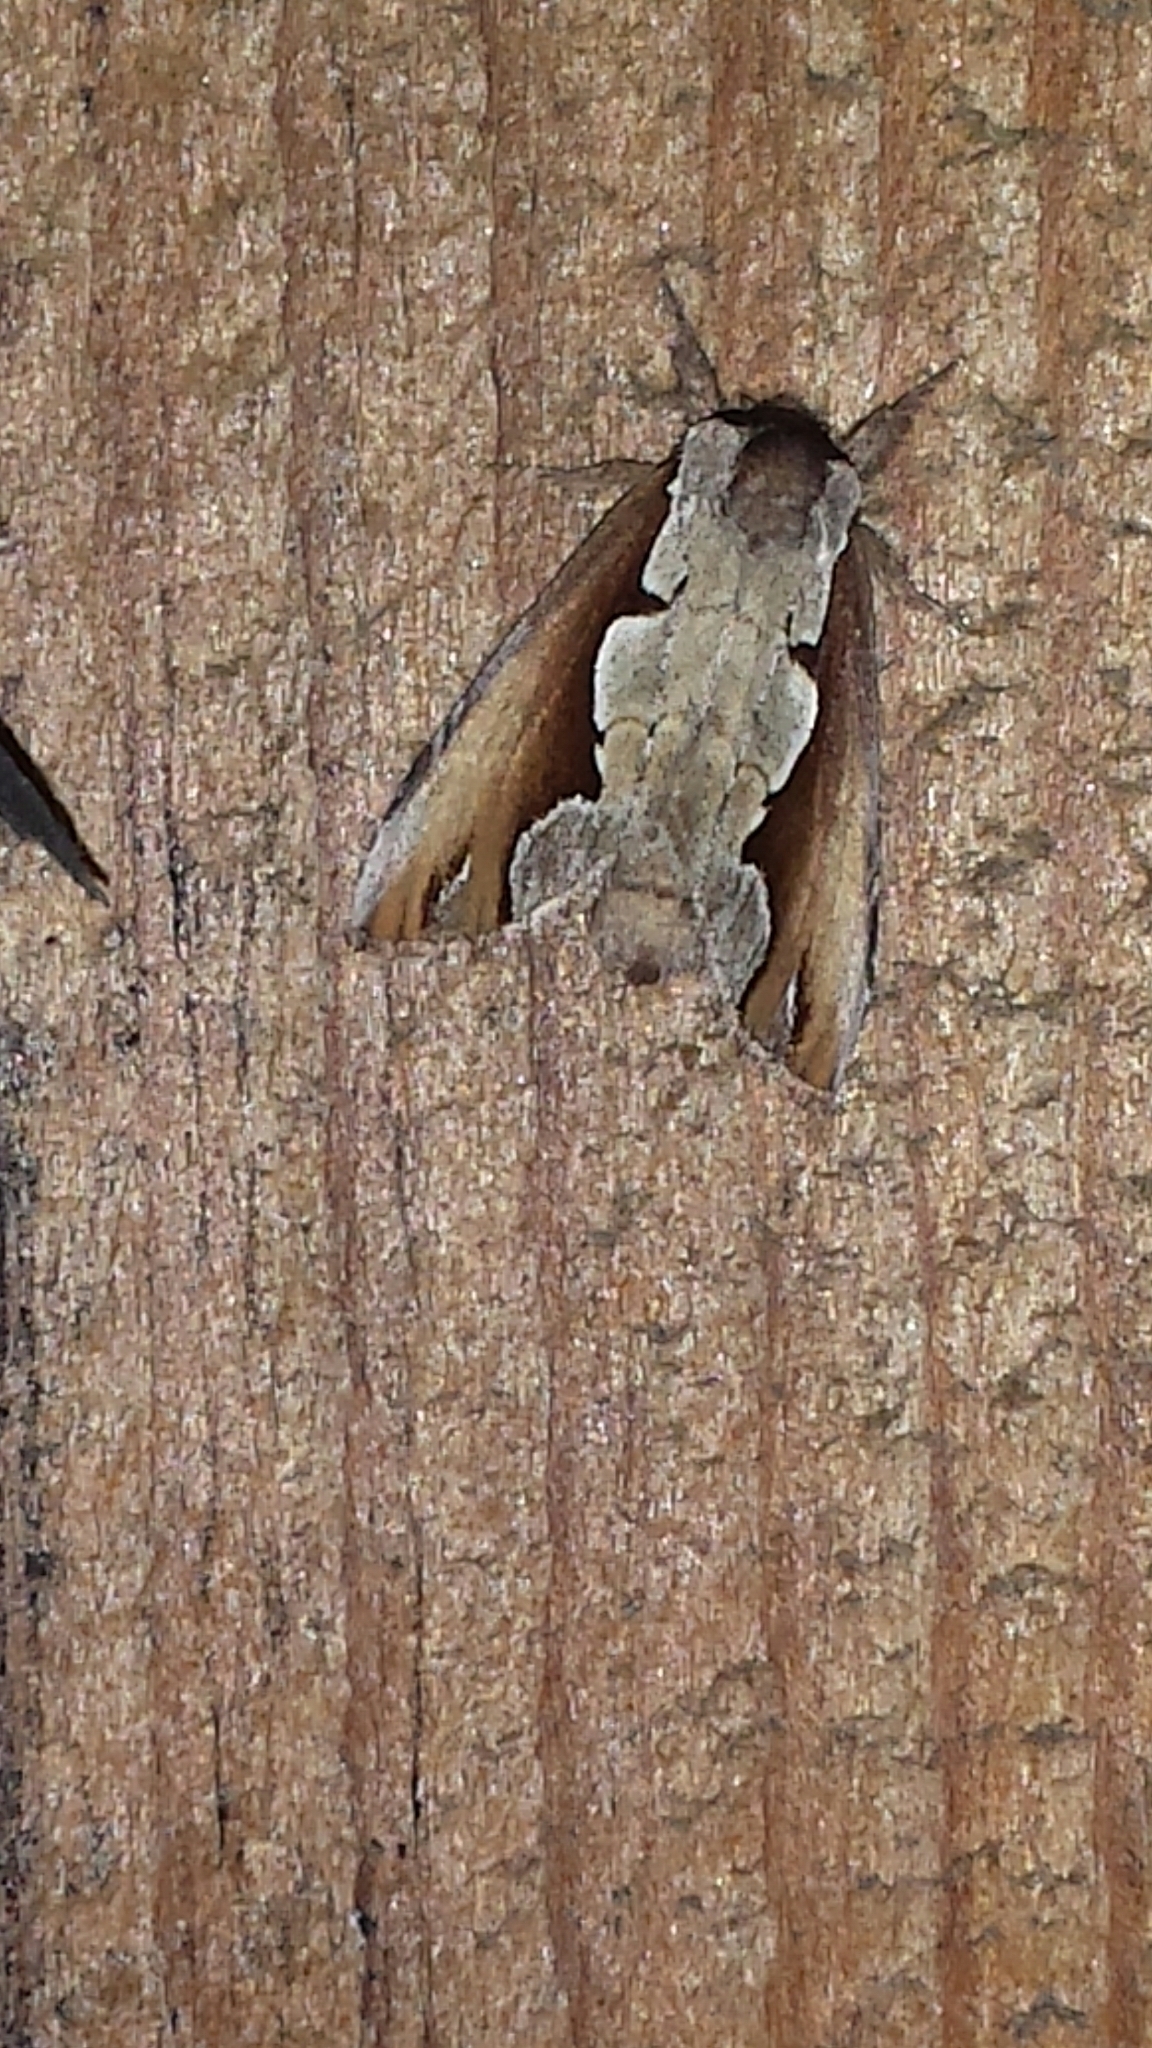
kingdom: Animalia
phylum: Arthropoda
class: Insecta
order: Lepidoptera
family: Notodontidae
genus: Nerice
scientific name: Nerice bidentata
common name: Double-toothed prominent
